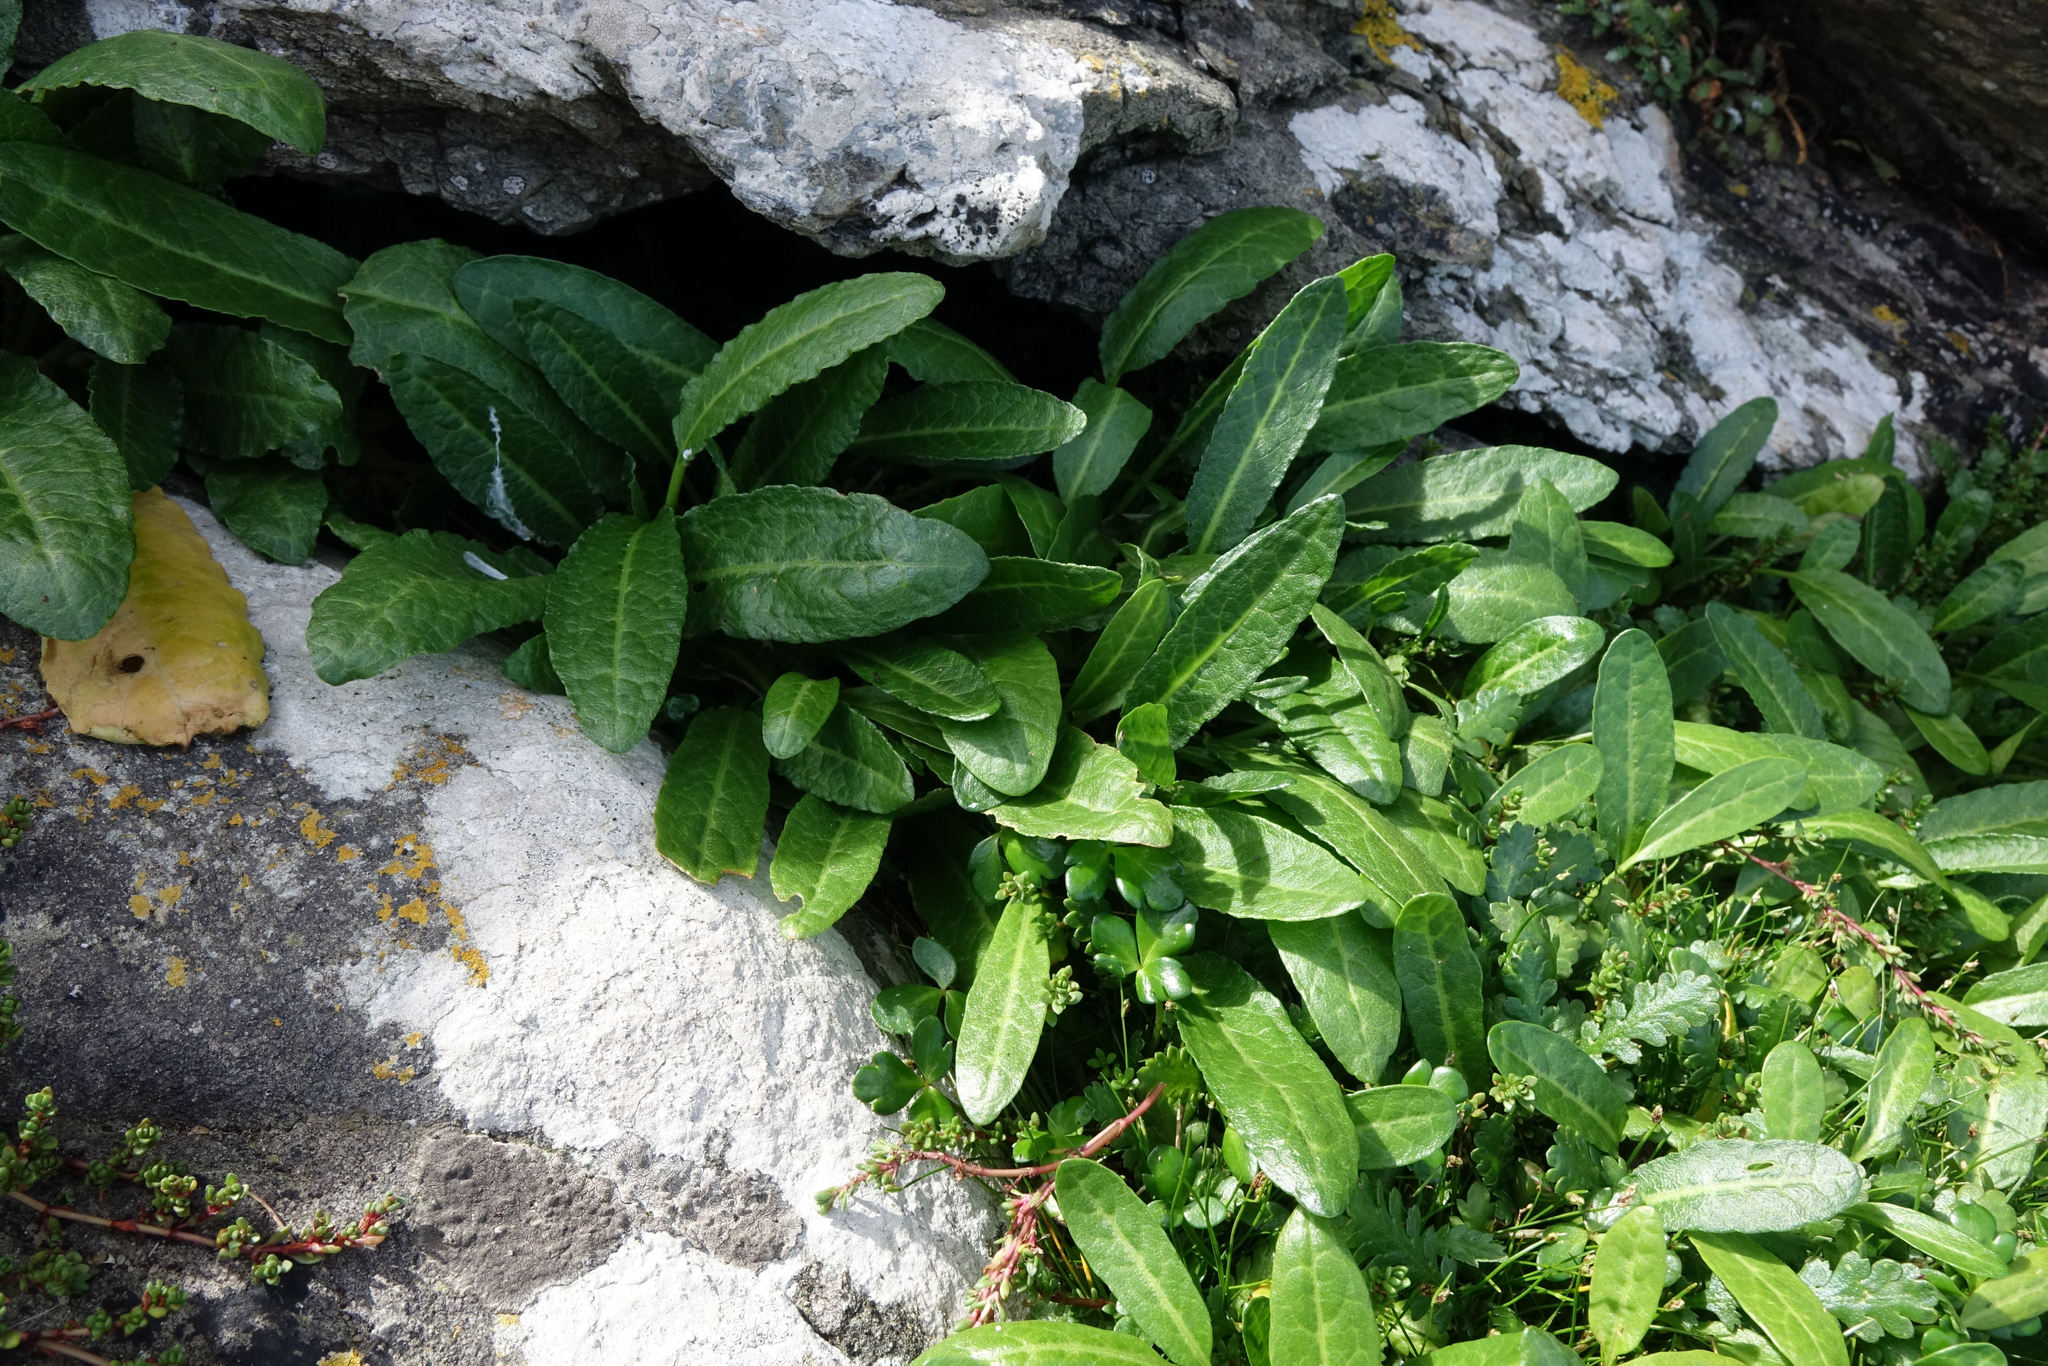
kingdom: Plantae
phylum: Tracheophyta
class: Magnoliopsida
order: Caryophyllales
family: Polygonaceae
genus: Rumex
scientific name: Rumex neglectus
